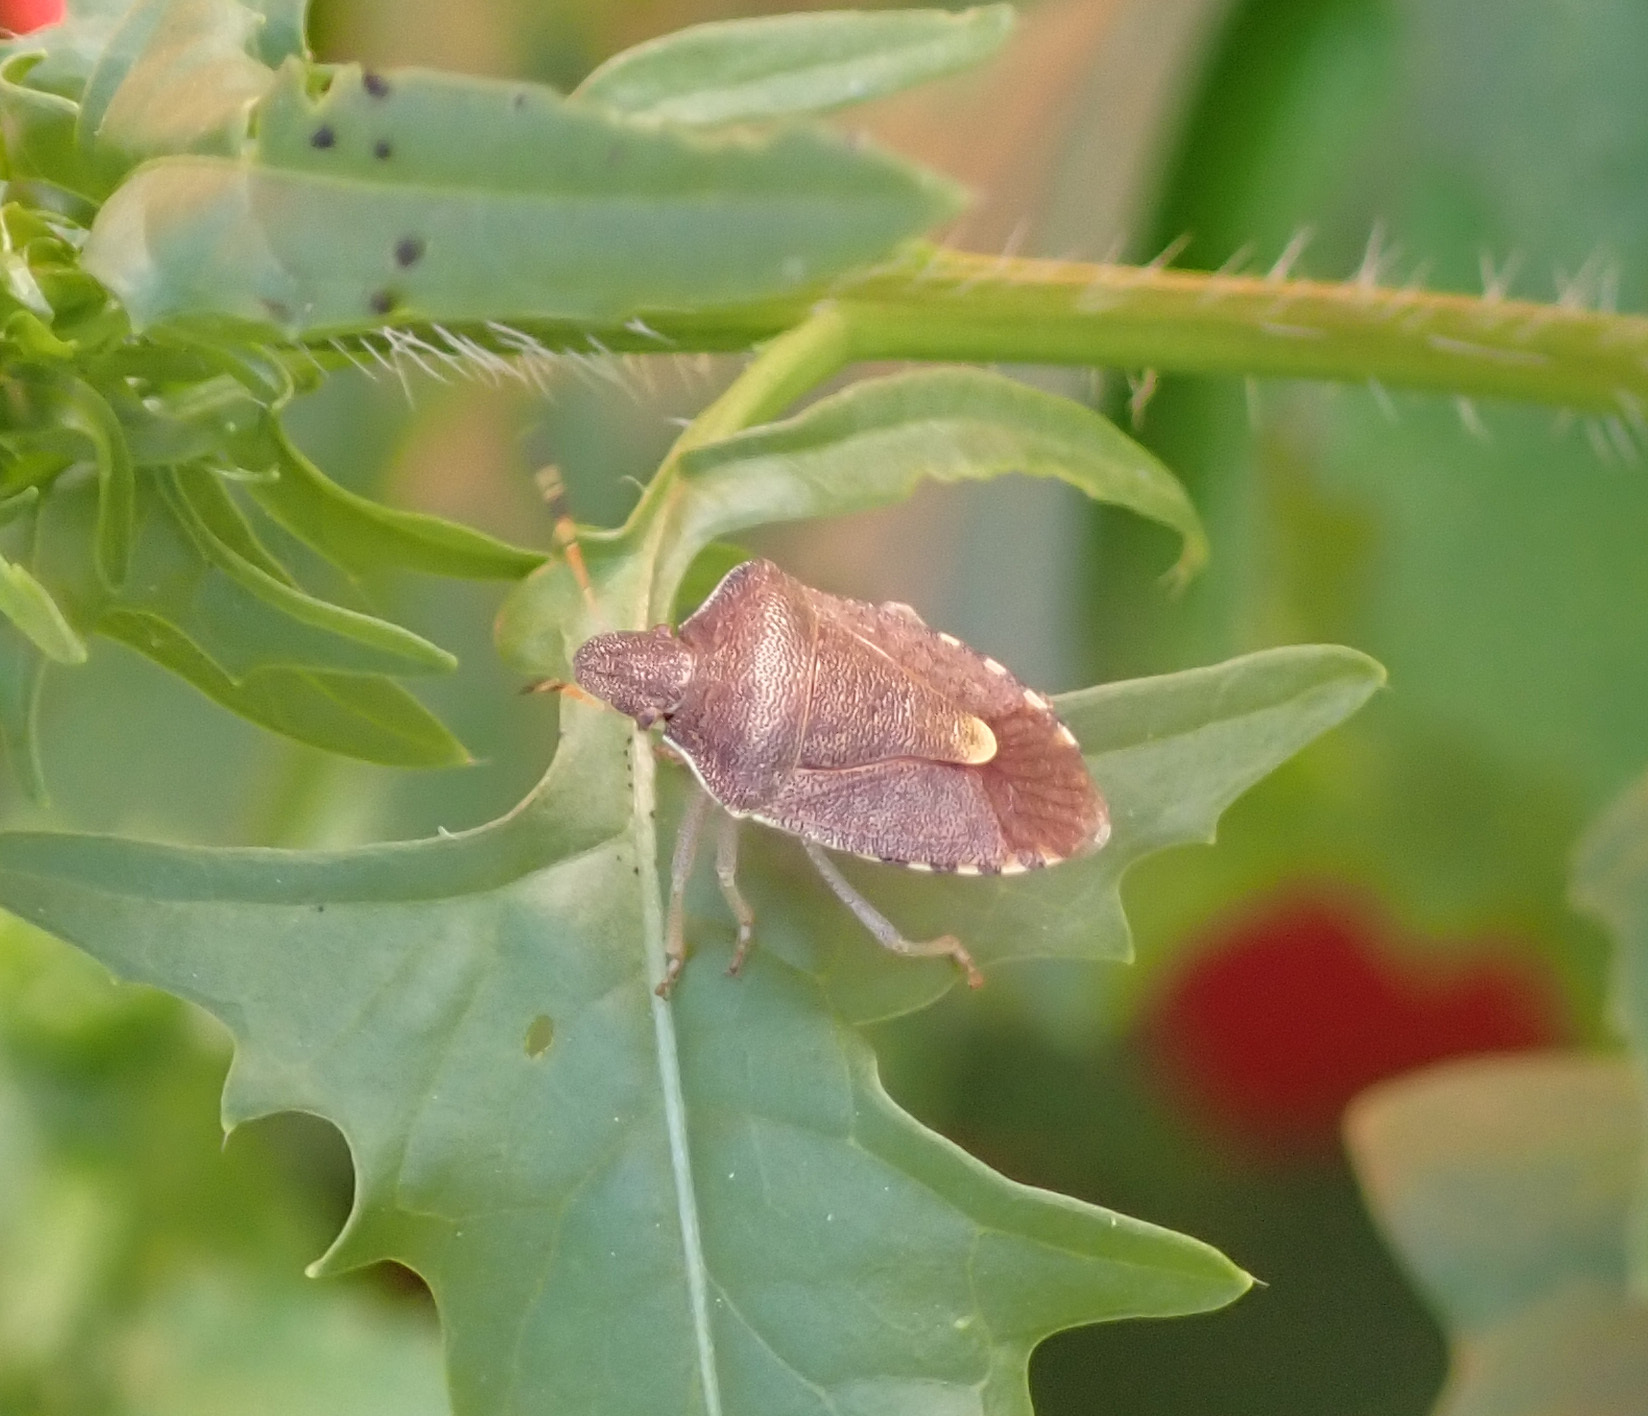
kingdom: Animalia
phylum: Arthropoda
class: Insecta
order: Hemiptera
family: Pentatomidae
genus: Holcostethus
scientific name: Holcostethus strictus
